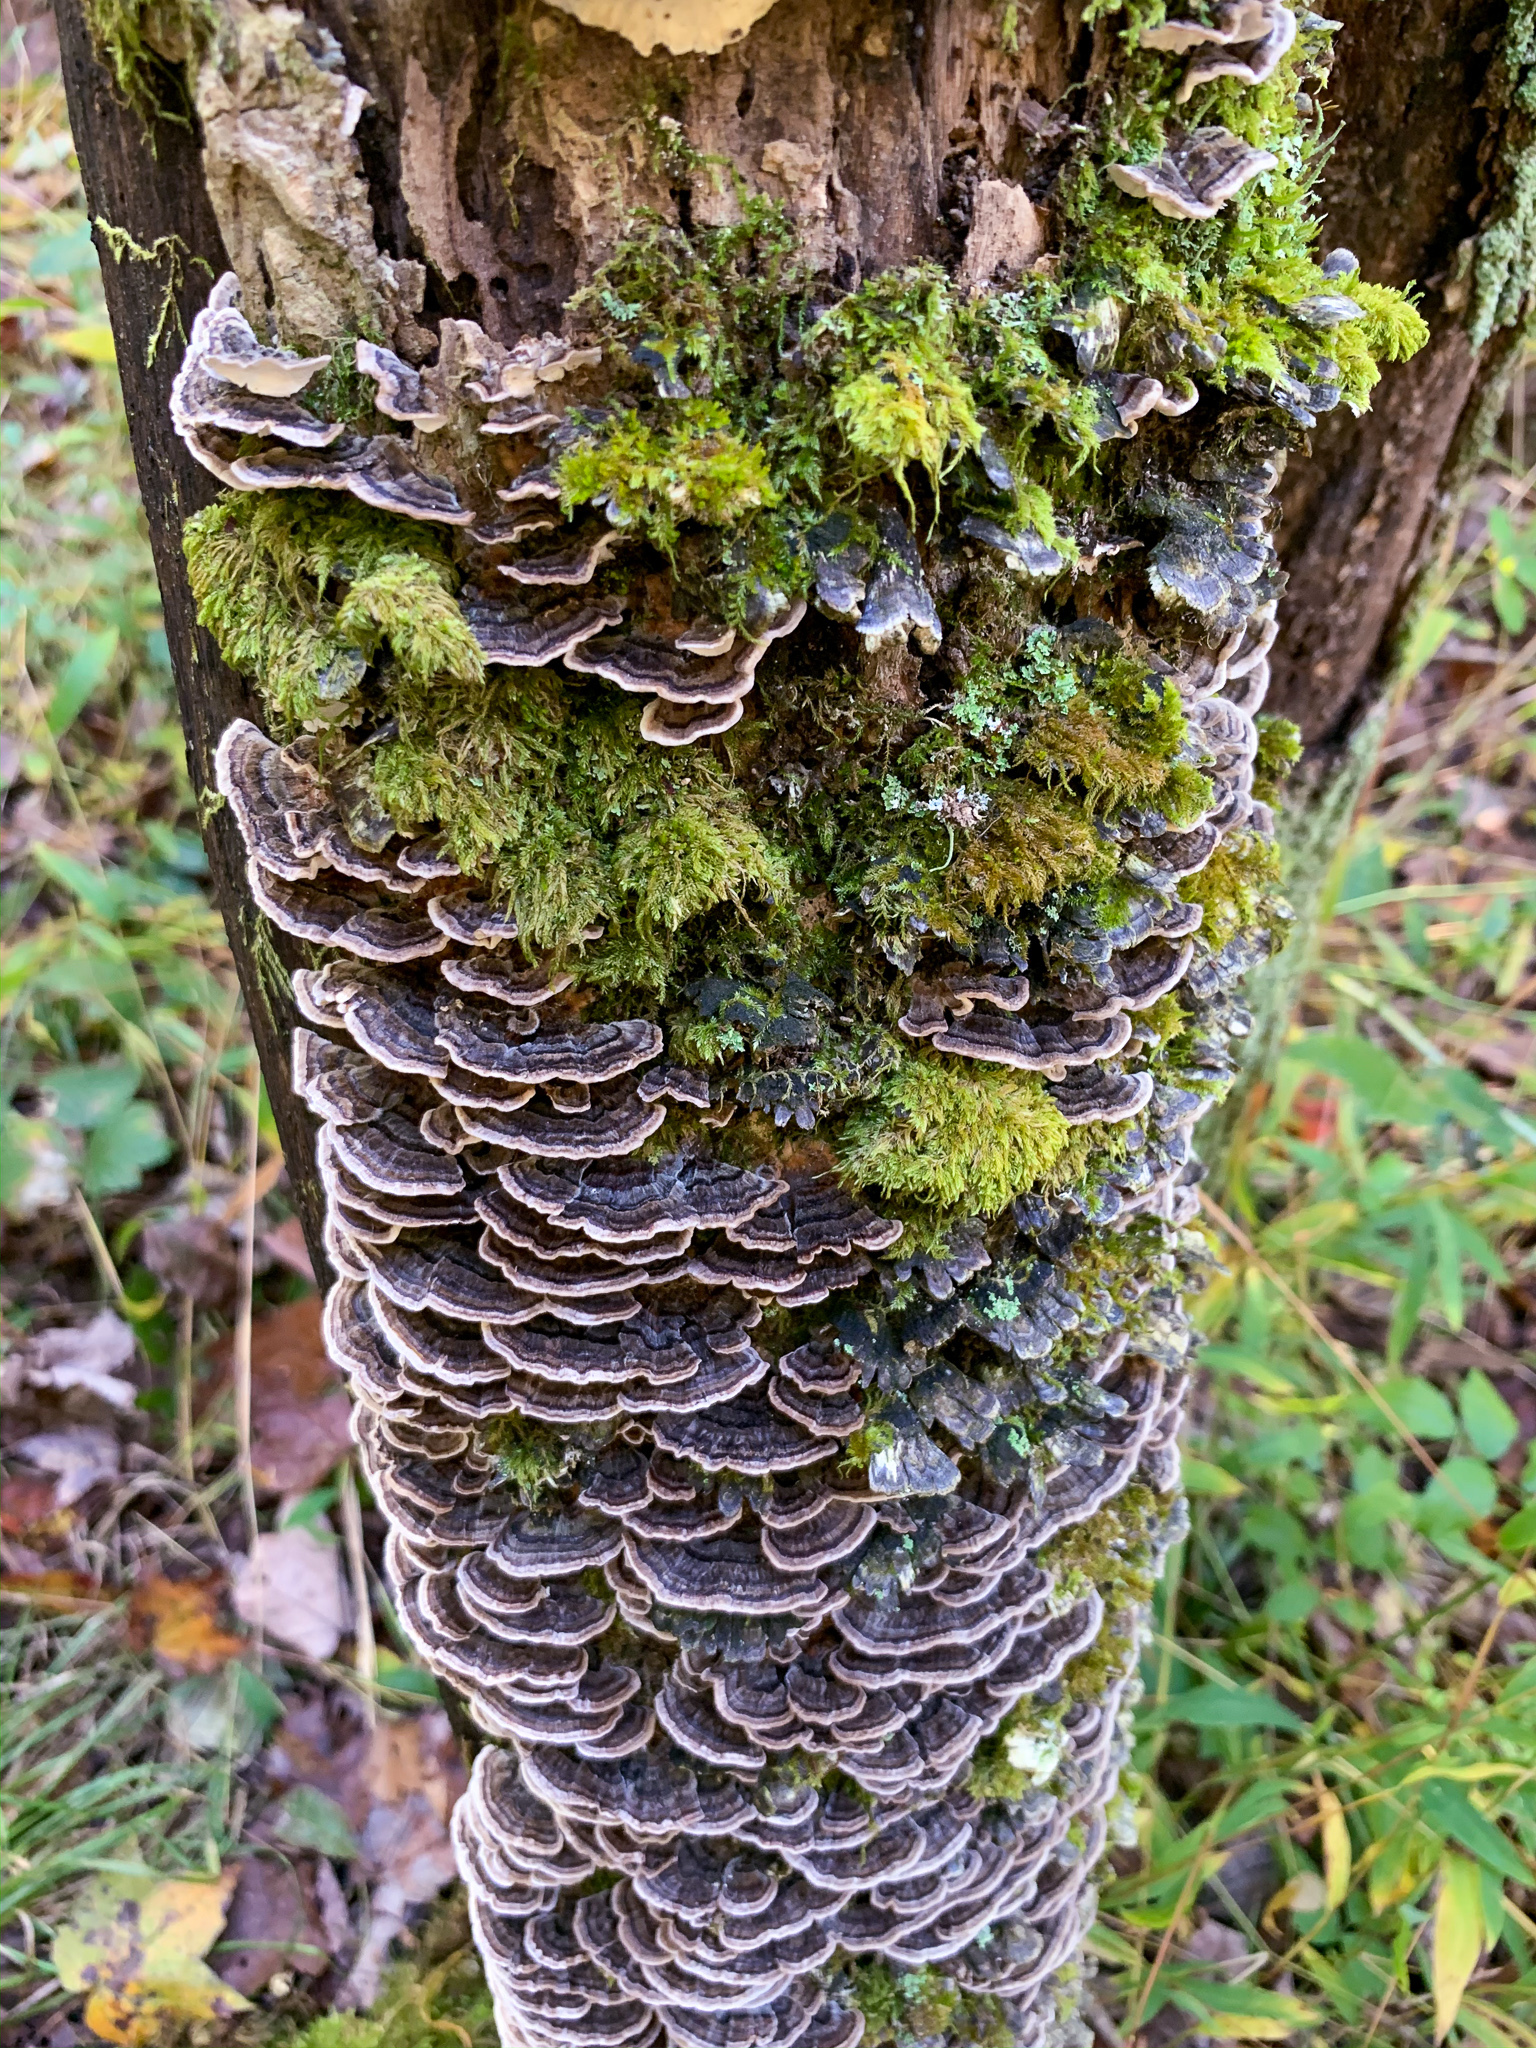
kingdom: Fungi
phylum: Basidiomycota
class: Agaricomycetes
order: Polyporales
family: Polyporaceae
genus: Trametes
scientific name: Trametes versicolor
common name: Turkeytail
